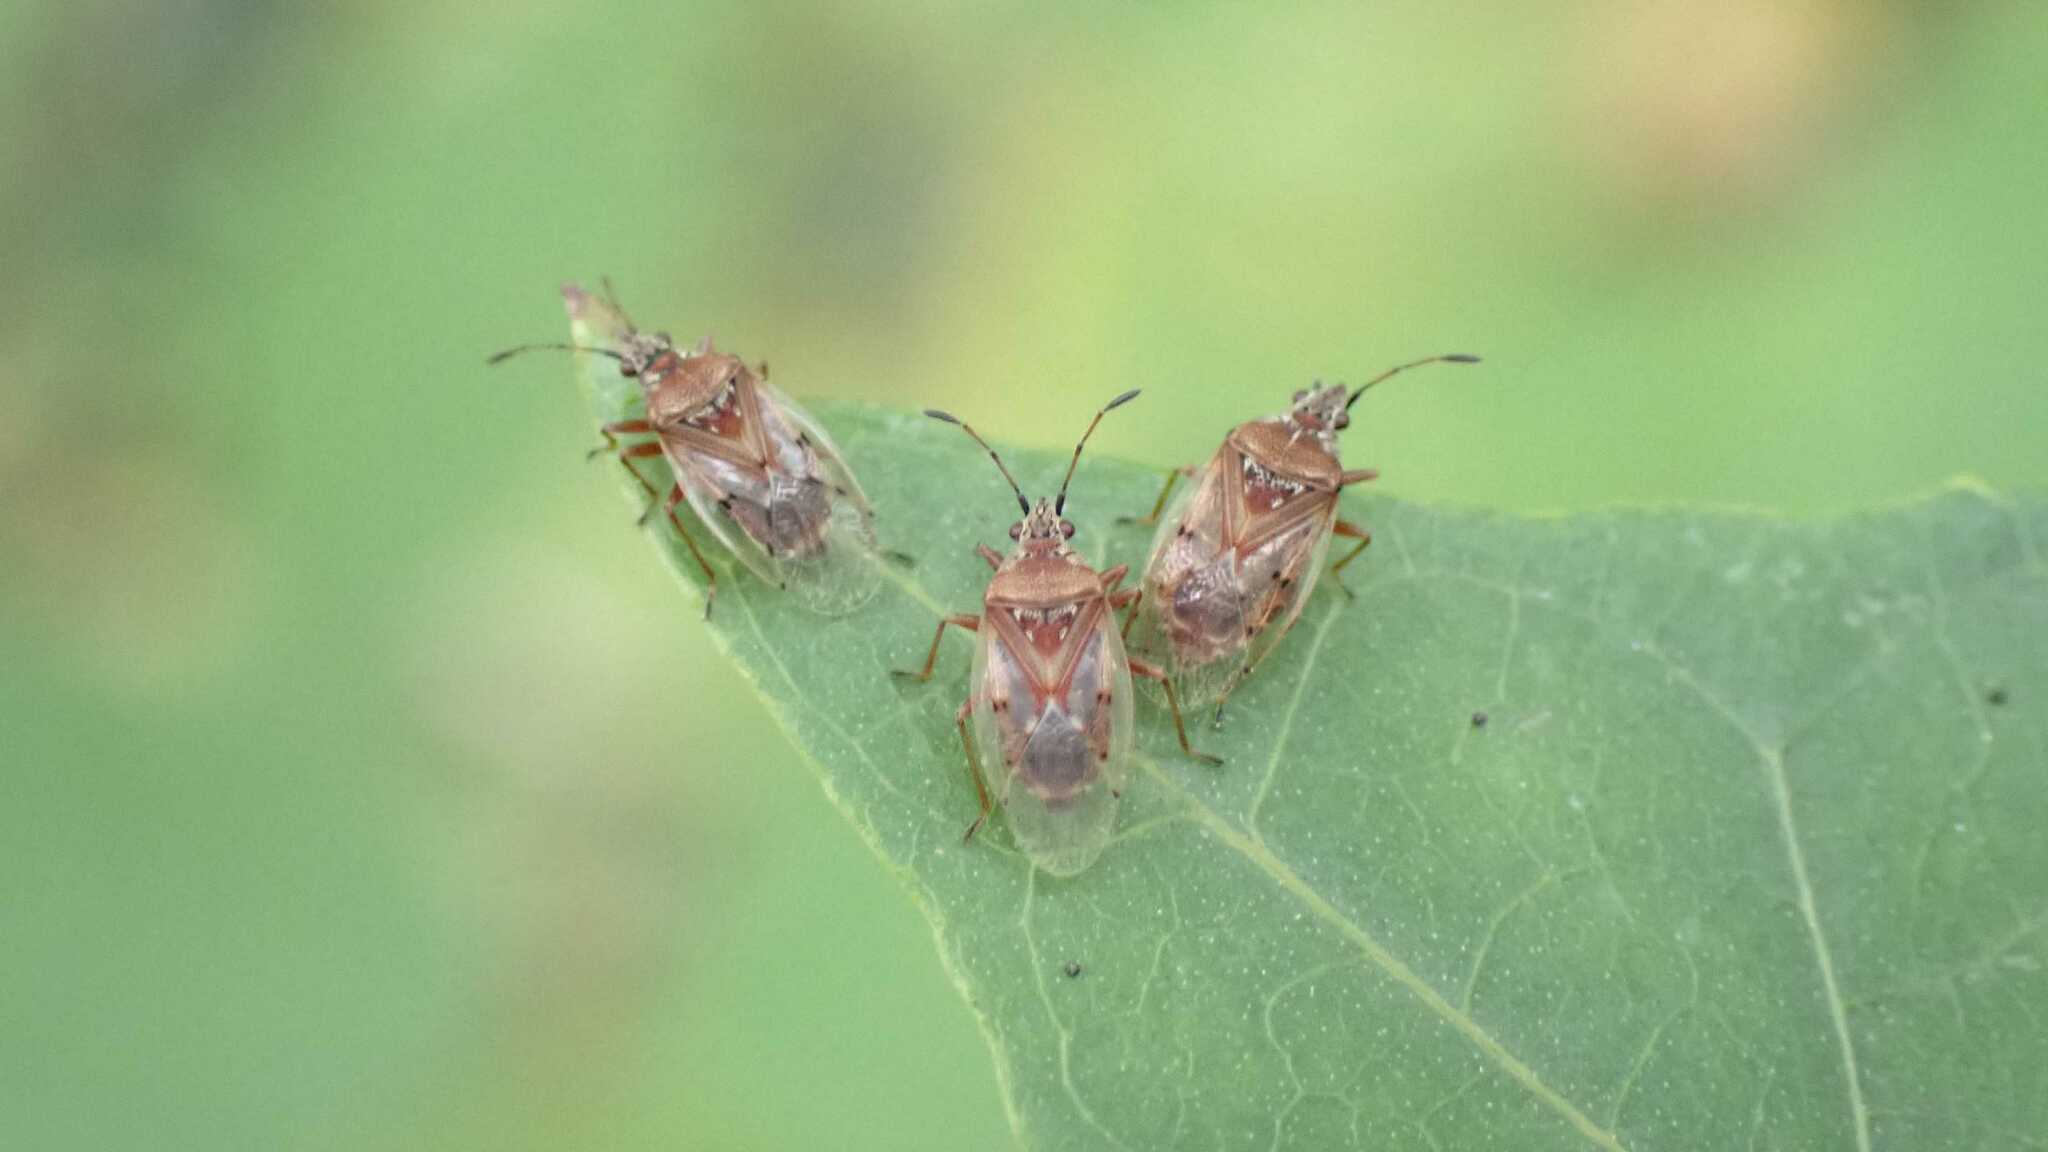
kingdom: Animalia
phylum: Arthropoda
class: Insecta
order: Hemiptera
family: Lygaeidae
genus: Kleidocerys
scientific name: Kleidocerys resedae
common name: Birch catkin bug
